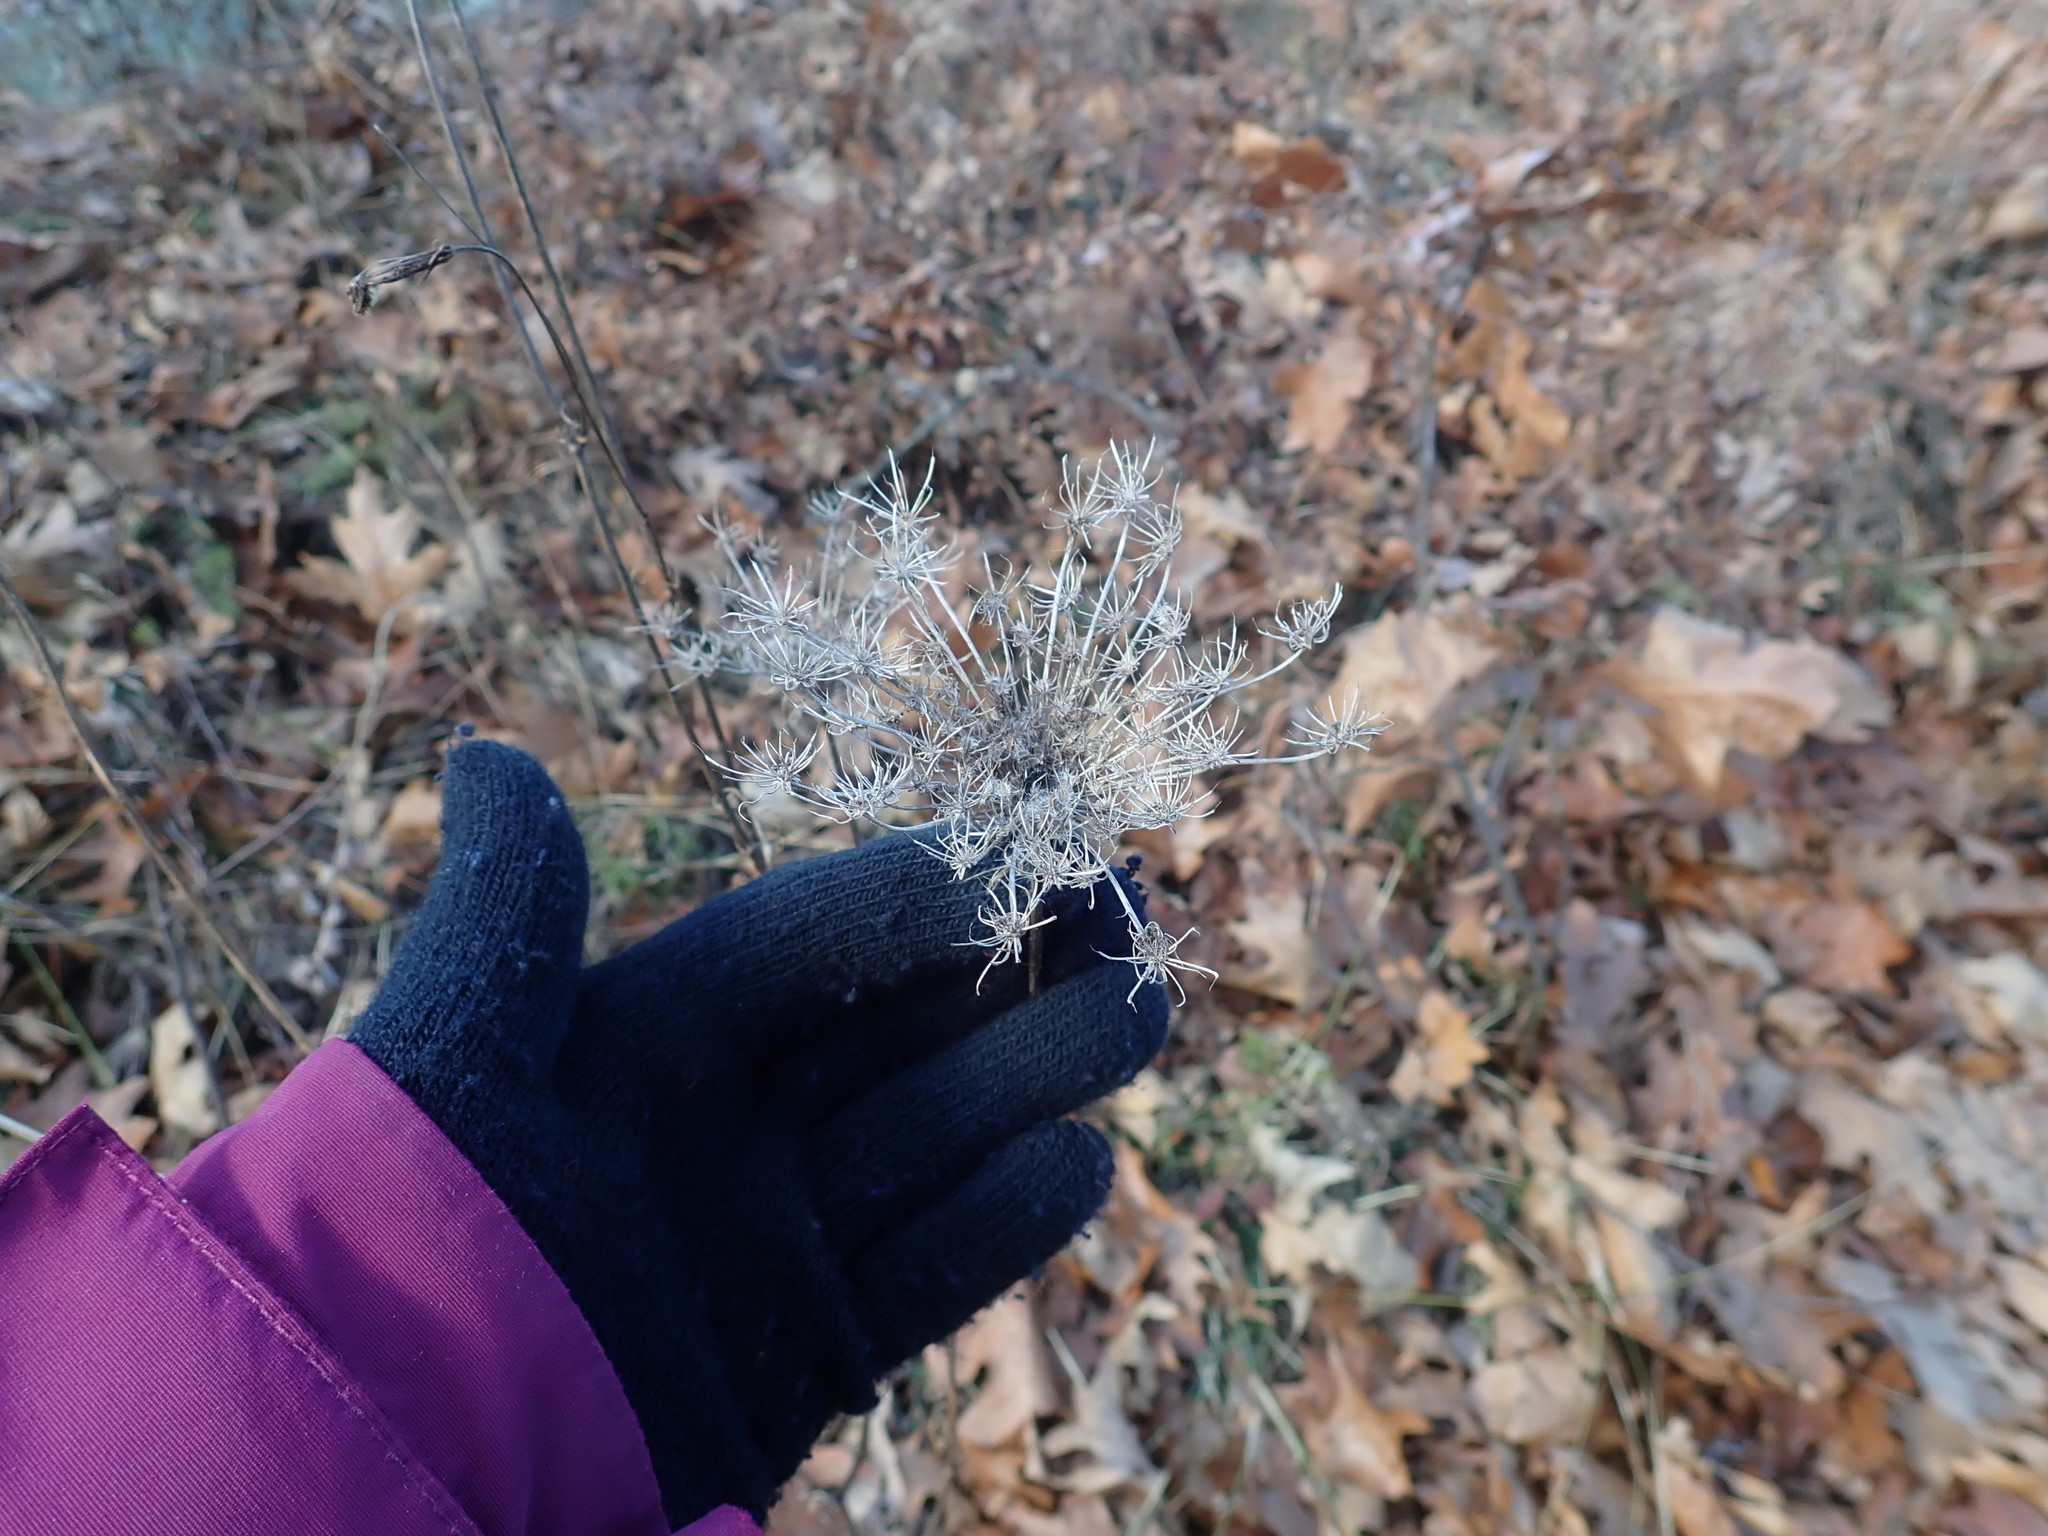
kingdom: Plantae
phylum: Tracheophyta
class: Magnoliopsida
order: Apiales
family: Apiaceae
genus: Daucus
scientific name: Daucus carota
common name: Wild carrot
